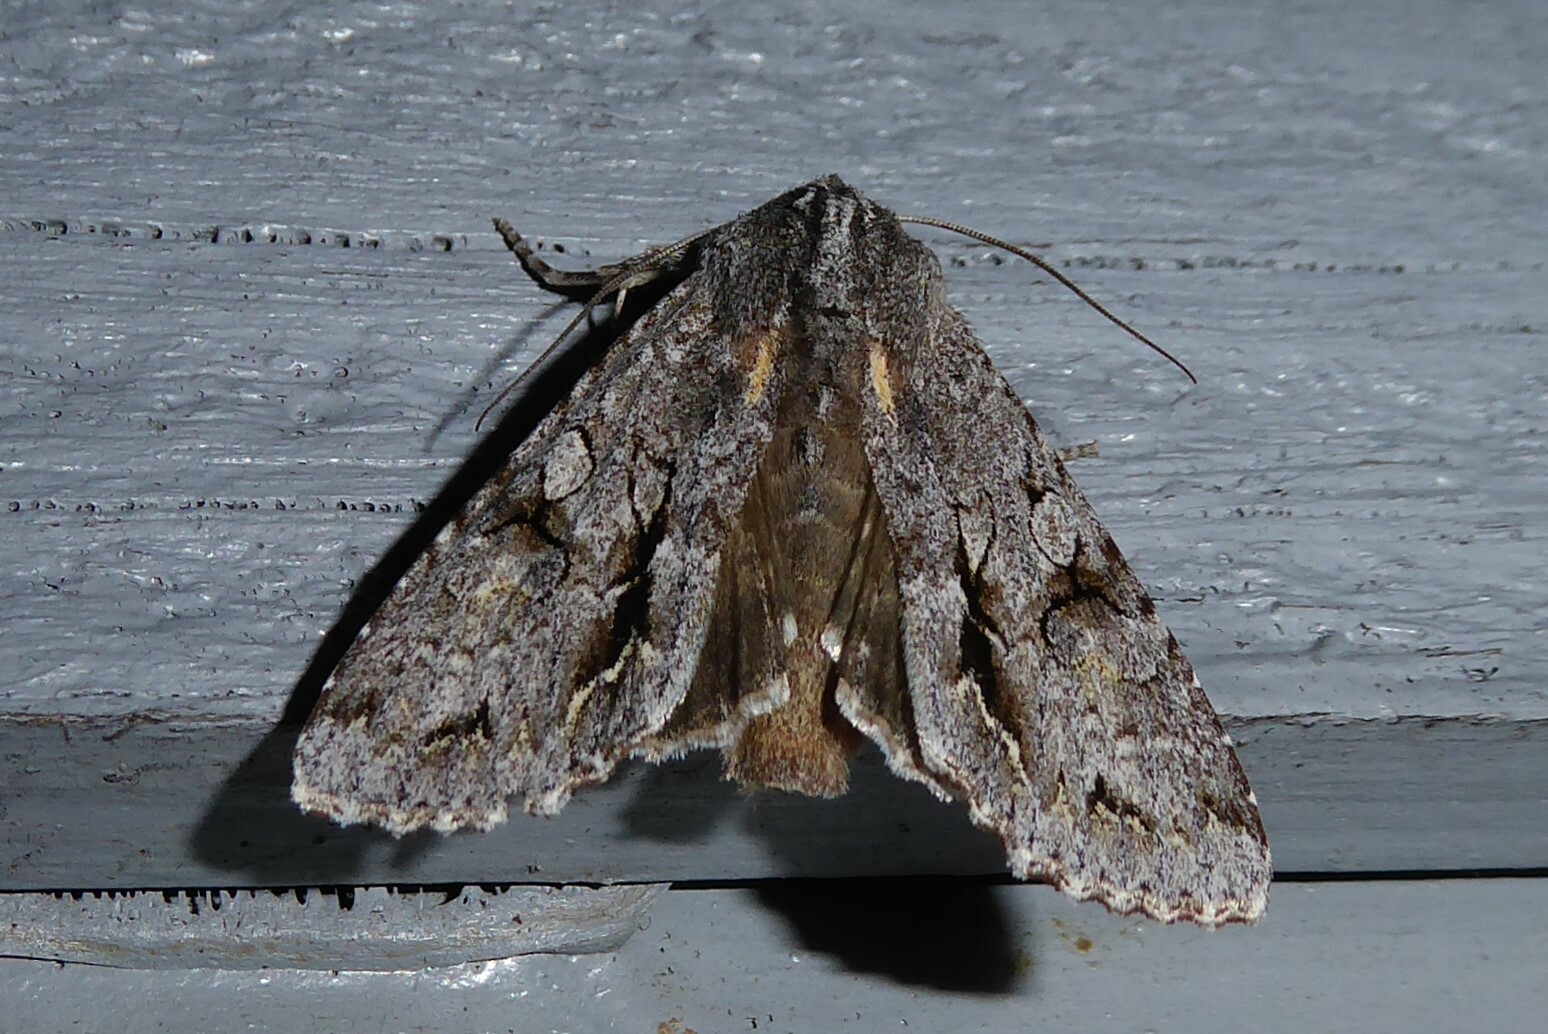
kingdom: Animalia
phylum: Arthropoda
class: Insecta
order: Lepidoptera
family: Noctuidae
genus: Ichneutica
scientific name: Ichneutica
